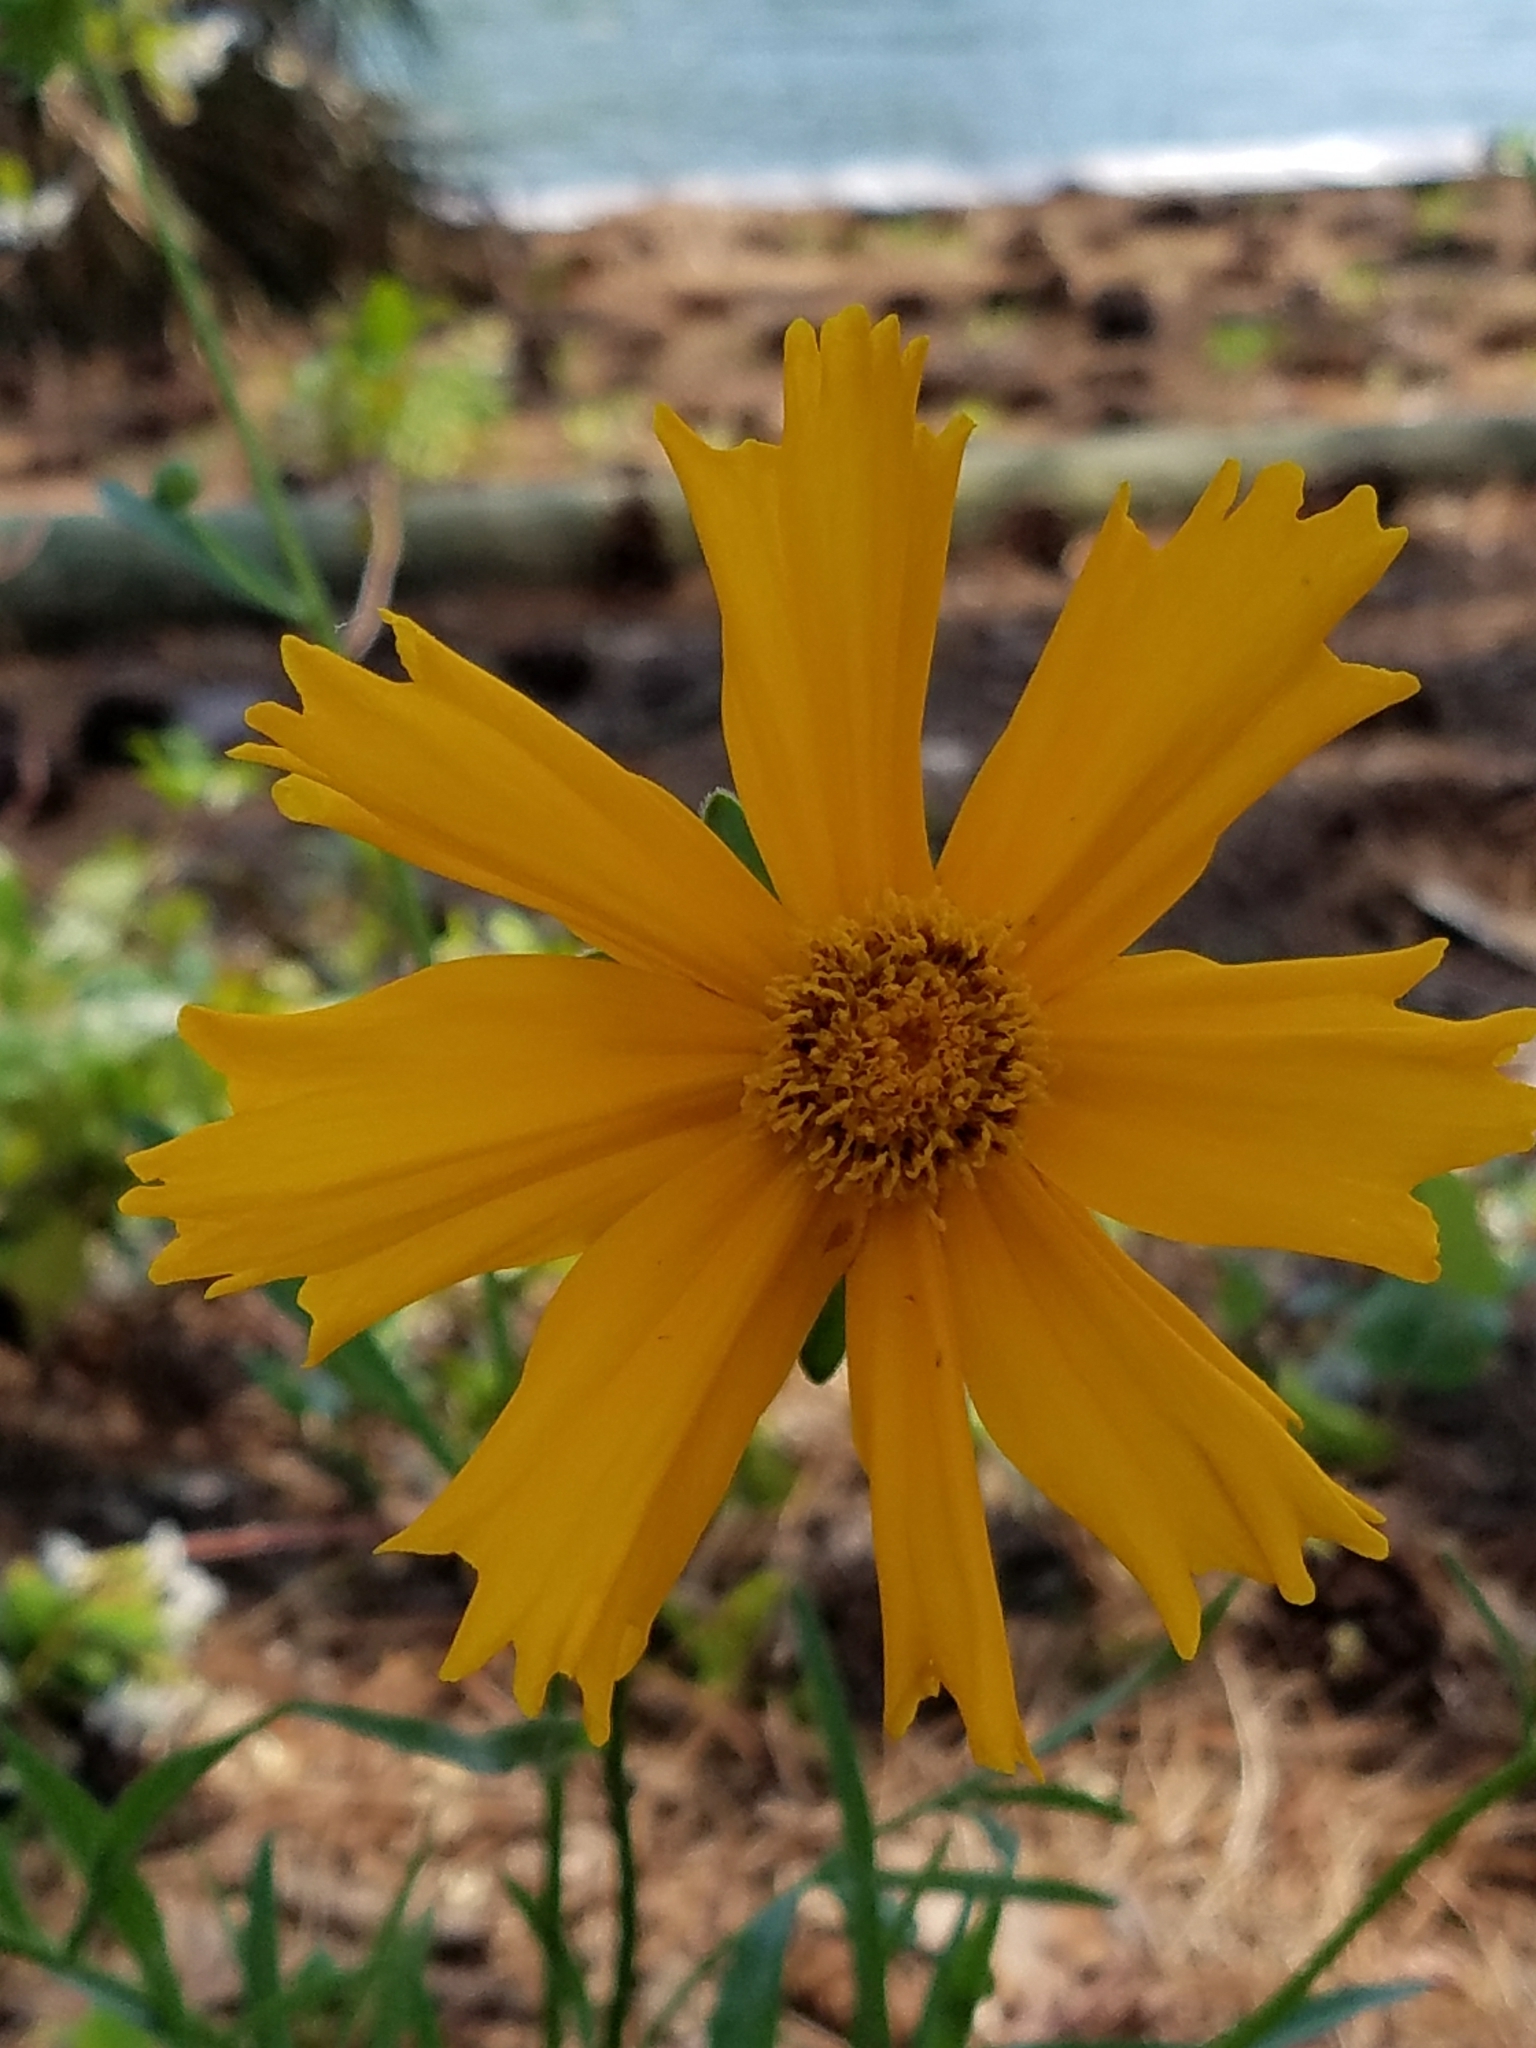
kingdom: Plantae
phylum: Tracheophyta
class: Magnoliopsida
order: Asterales
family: Asteraceae
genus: Coreopsis
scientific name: Coreopsis lanceolata
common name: Garden coreopsis
